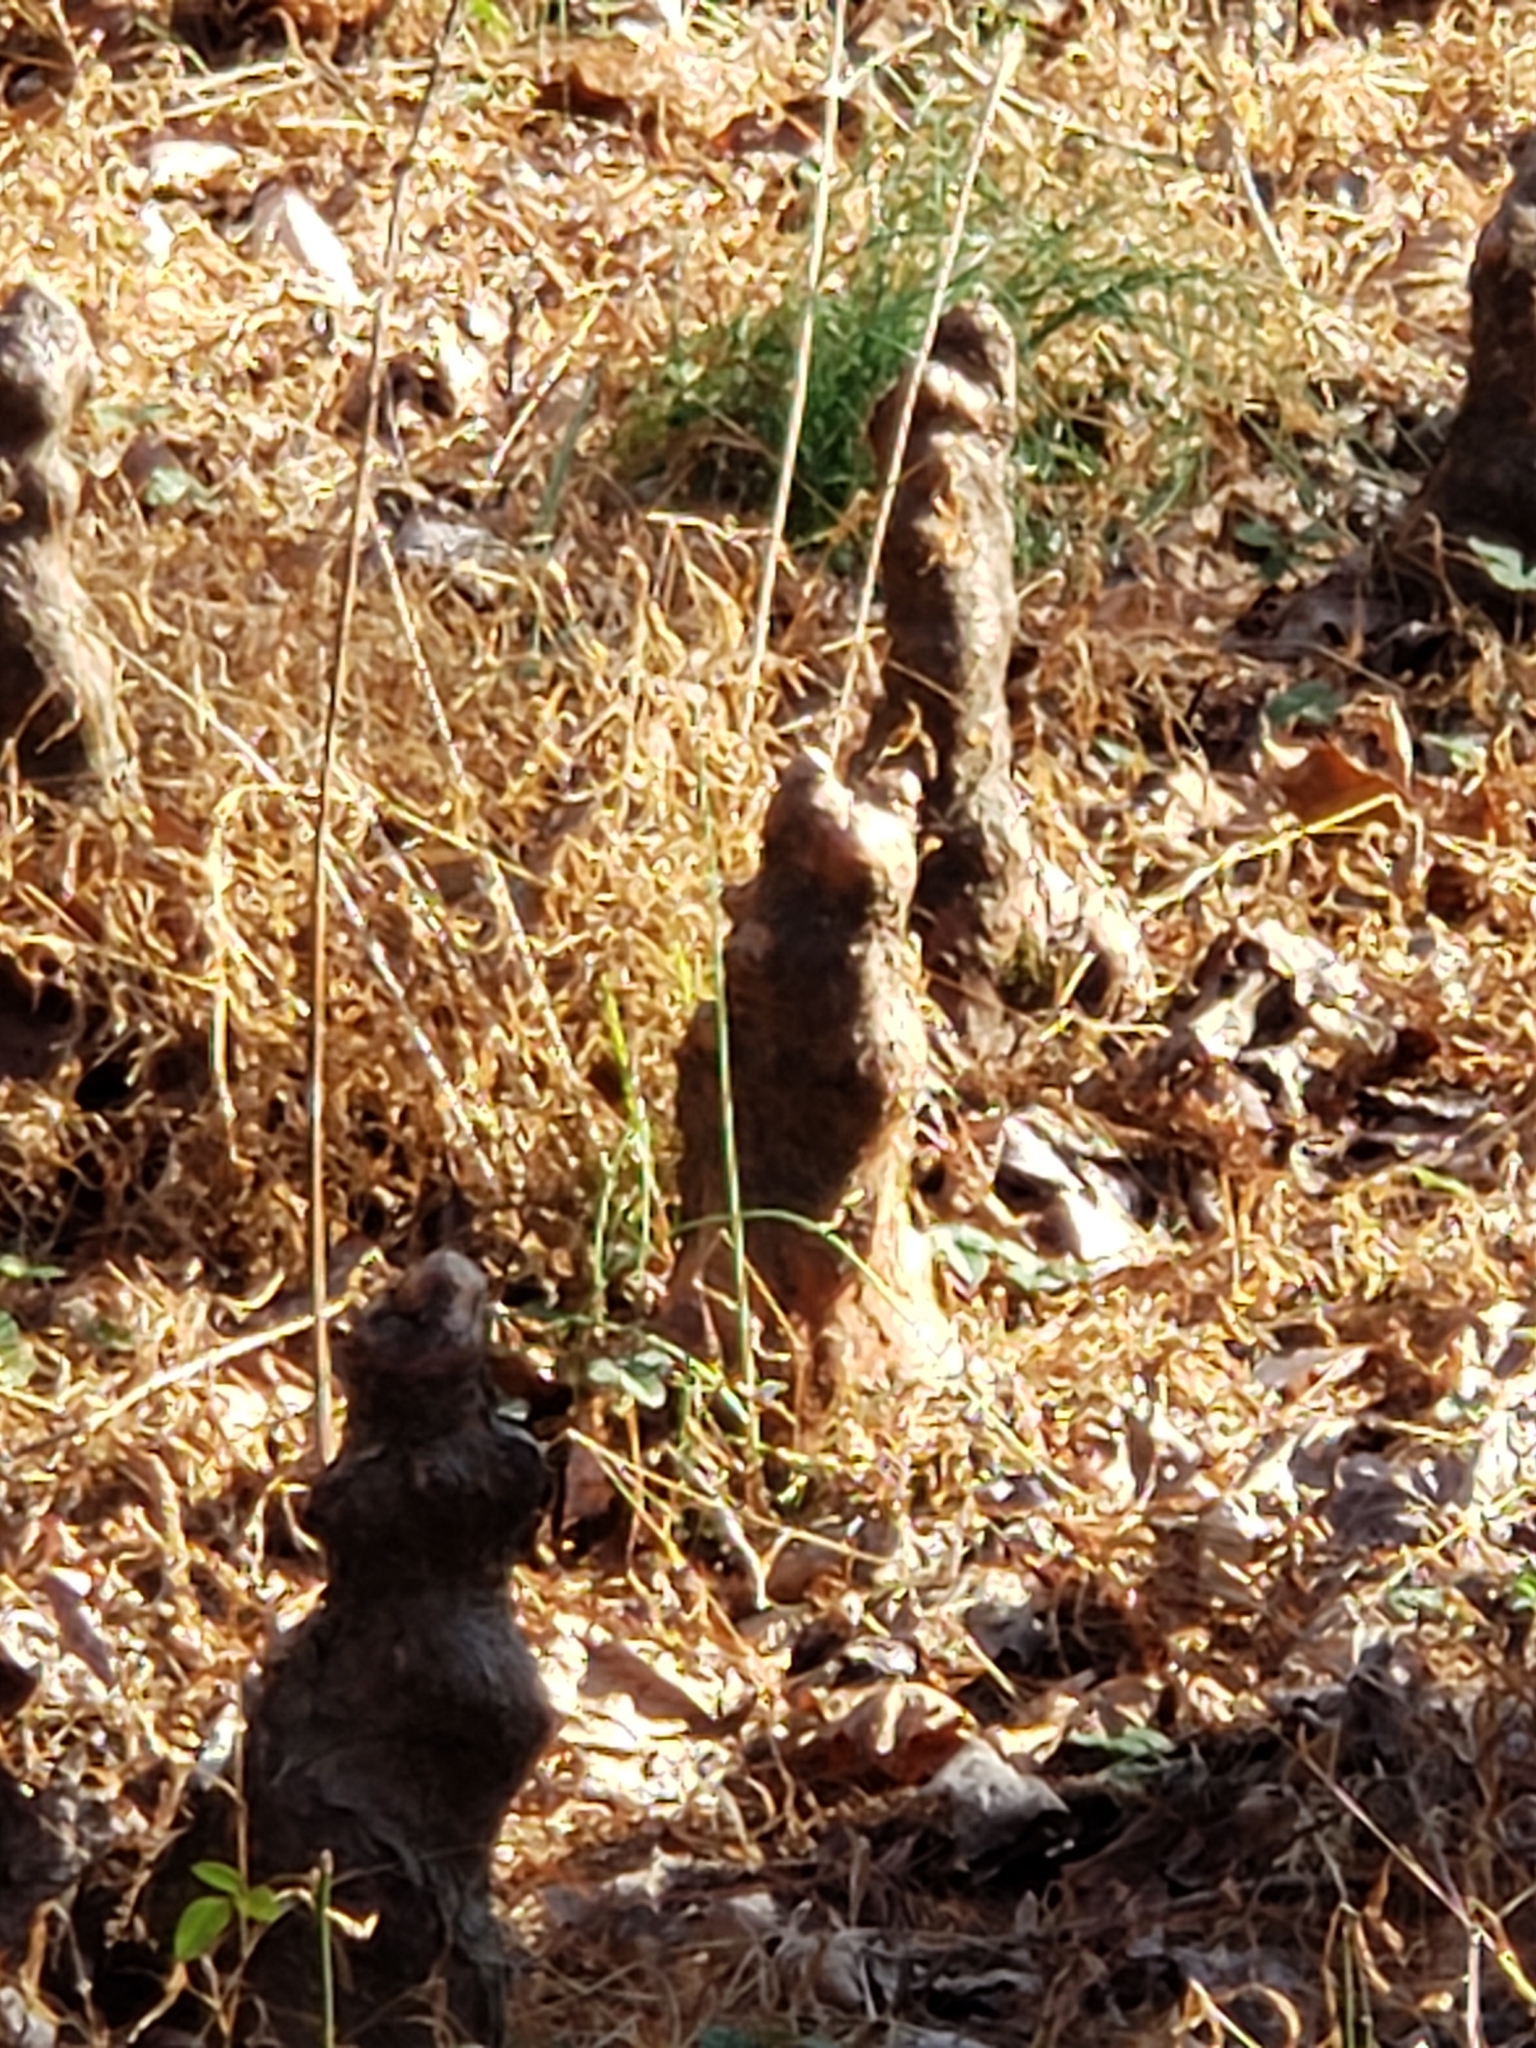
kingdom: Plantae
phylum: Tracheophyta
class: Pinopsida
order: Pinales
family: Cupressaceae
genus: Taxodium
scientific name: Taxodium distichum
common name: Bald cypress
